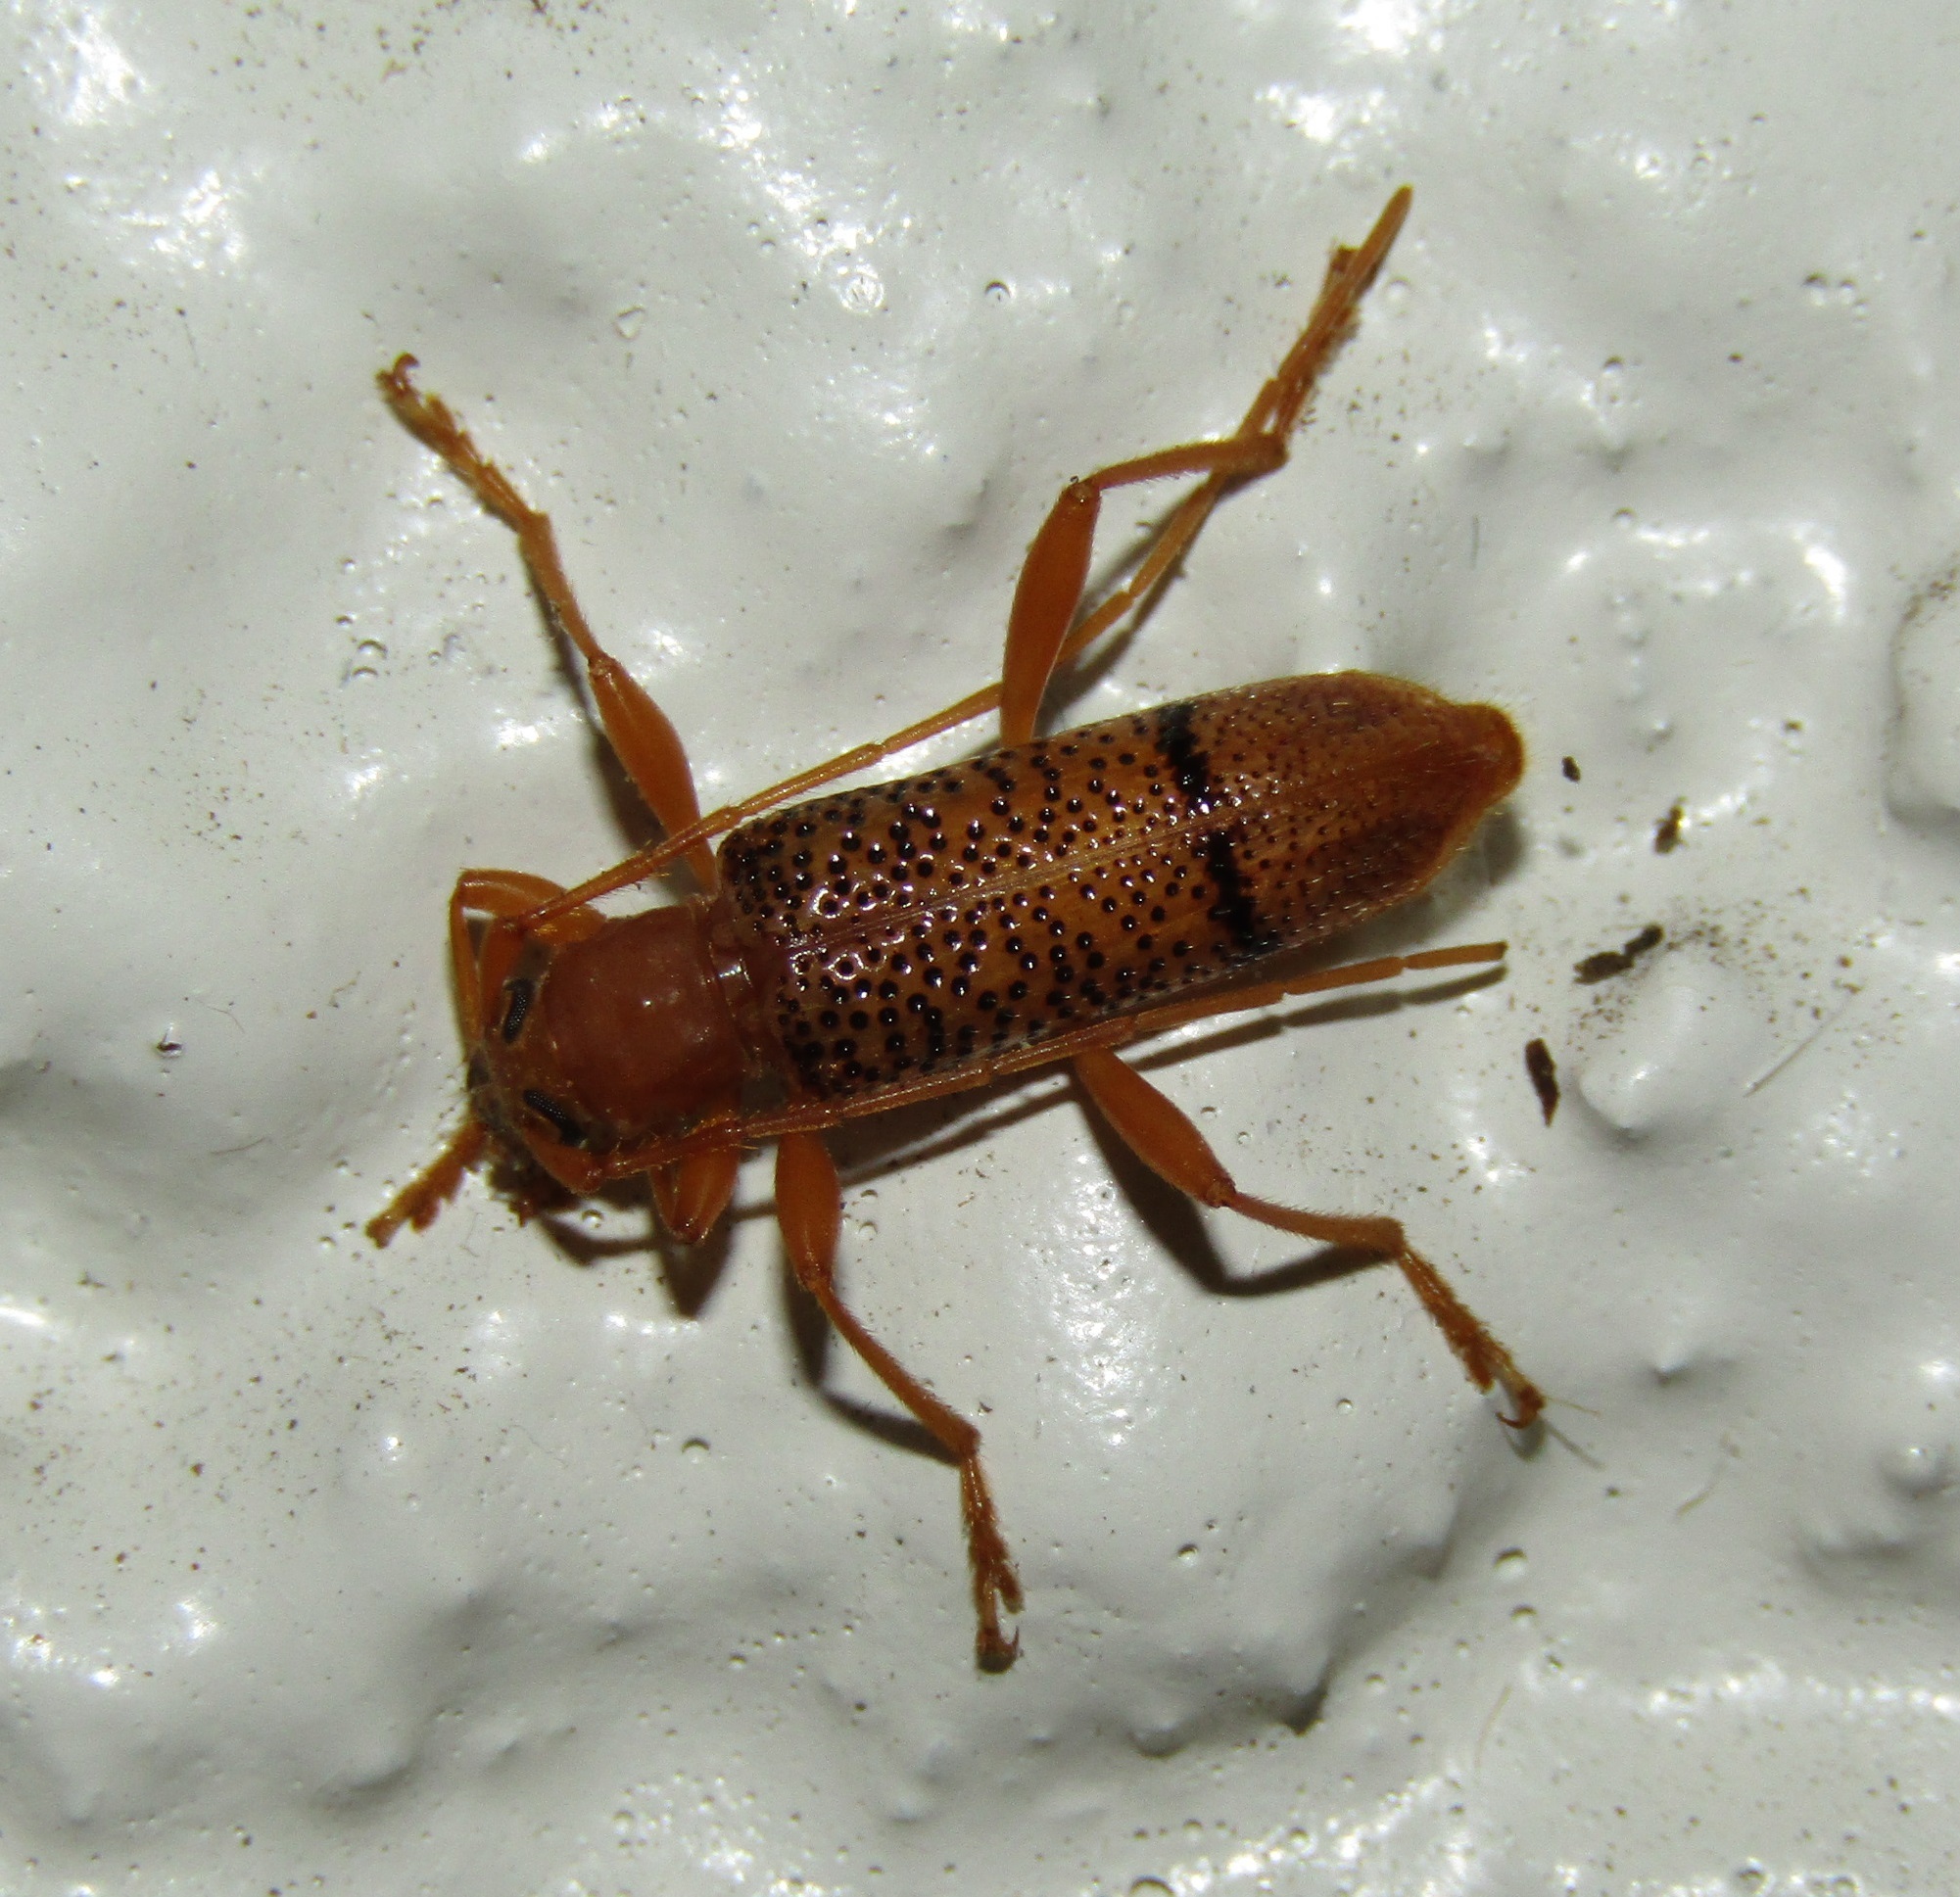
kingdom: Animalia
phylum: Arthropoda
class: Insecta
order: Coleoptera
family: Cerambycidae
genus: Xuthodes
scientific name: Xuthodes punctipennis
